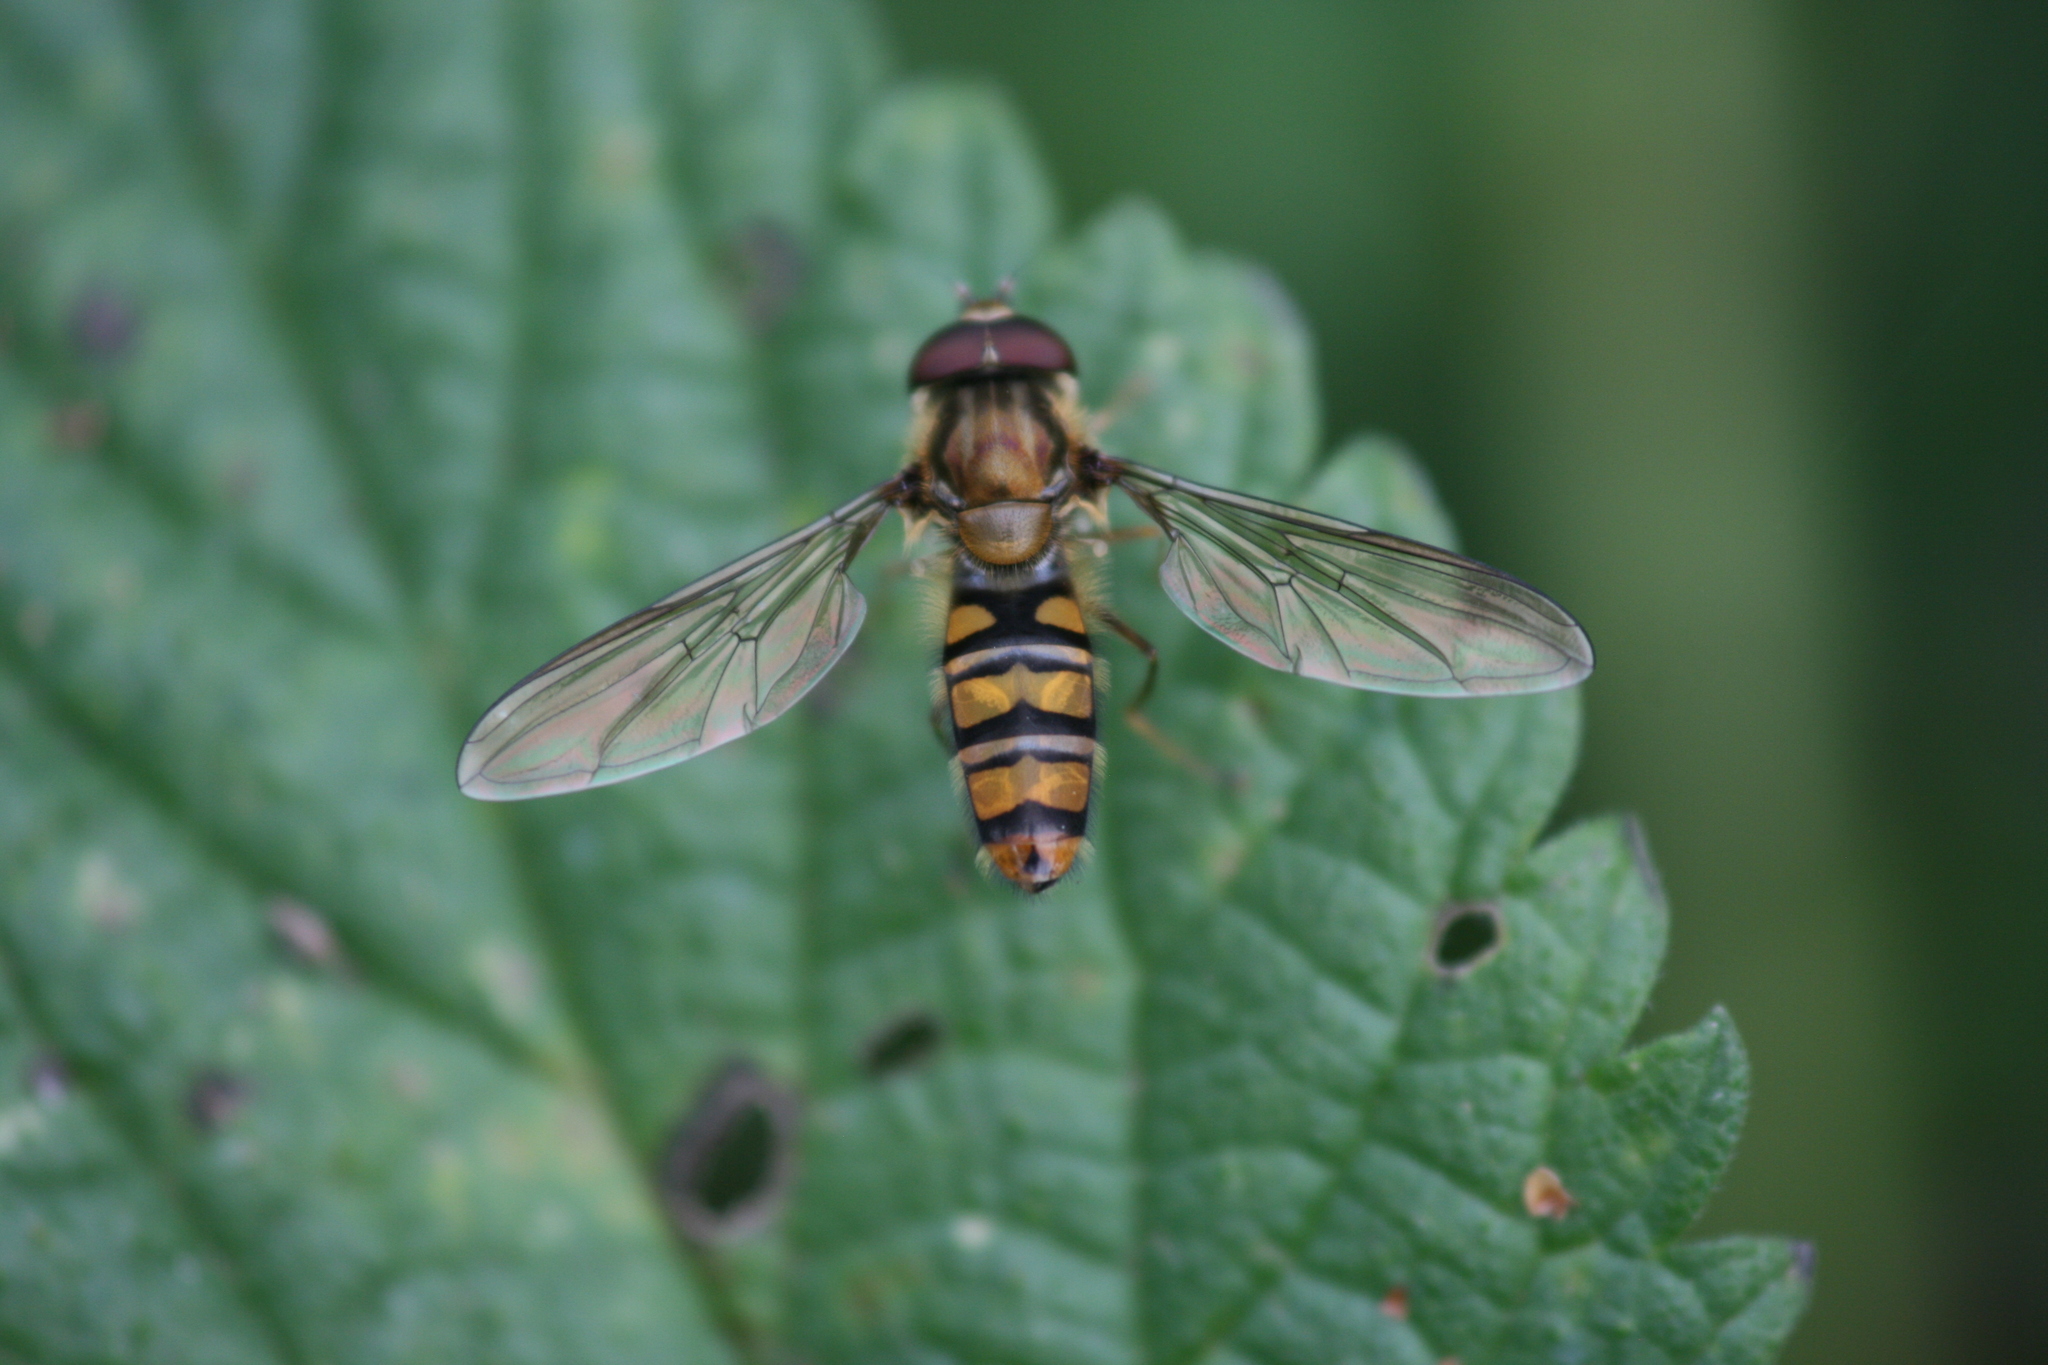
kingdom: Animalia
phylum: Arthropoda
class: Insecta
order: Diptera
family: Syrphidae
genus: Episyrphus
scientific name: Episyrphus balteatus
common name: Marmalade hoverfly
